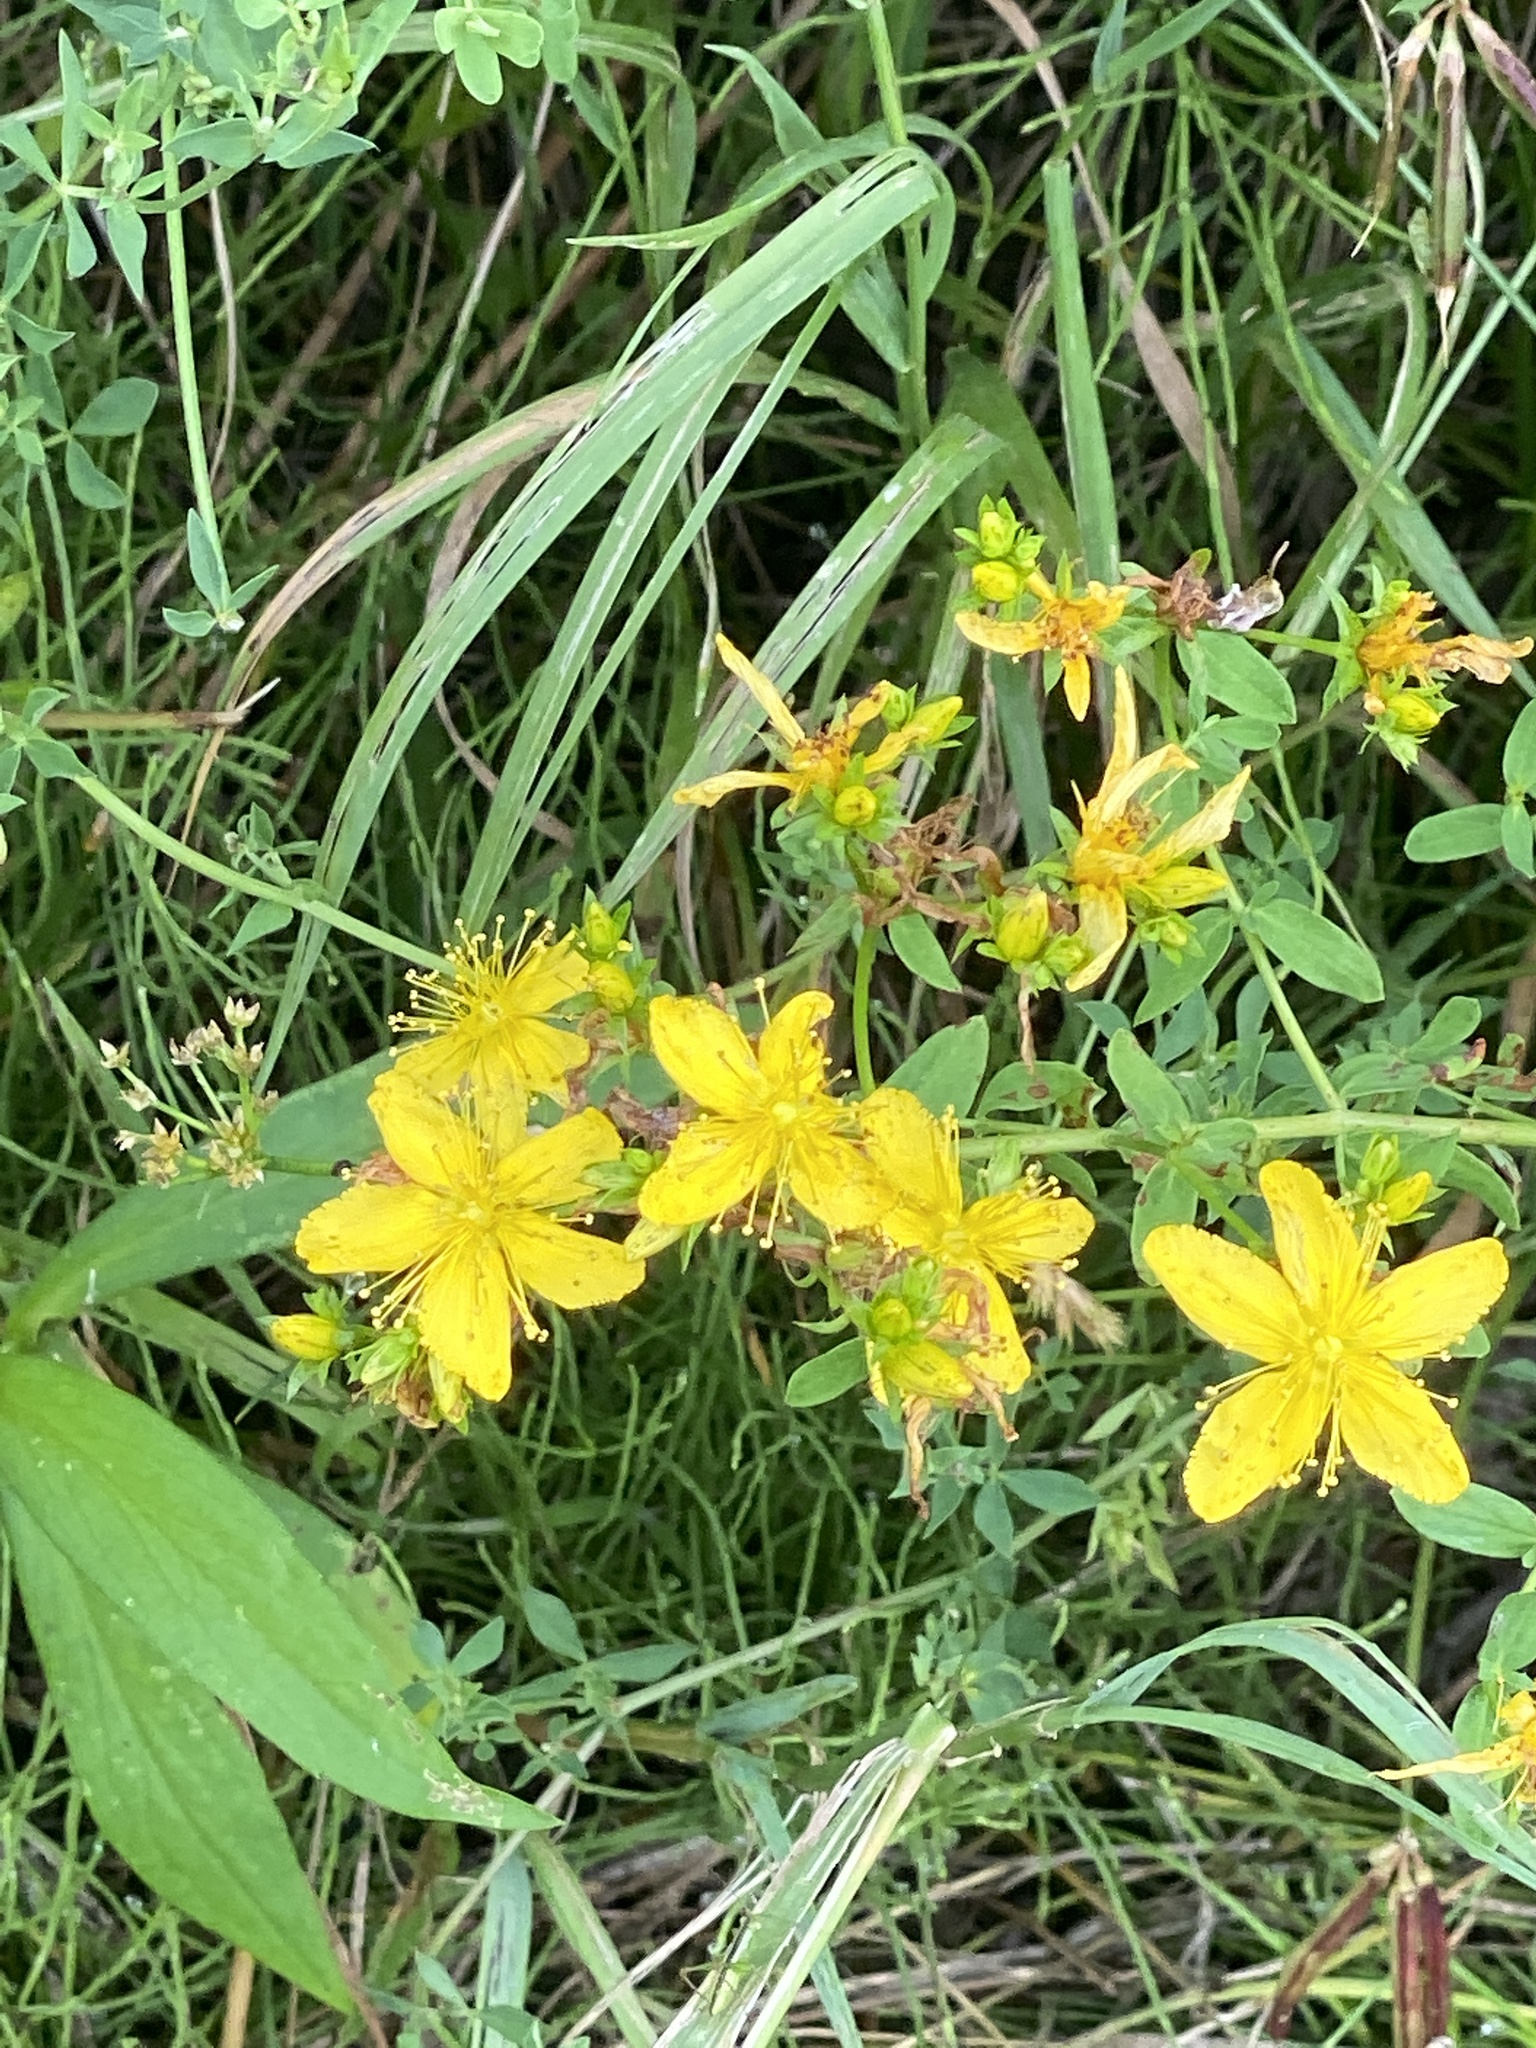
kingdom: Plantae
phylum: Tracheophyta
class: Magnoliopsida
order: Malpighiales
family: Hypericaceae
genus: Hypericum
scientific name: Hypericum perforatum
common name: Common st. johnswort
